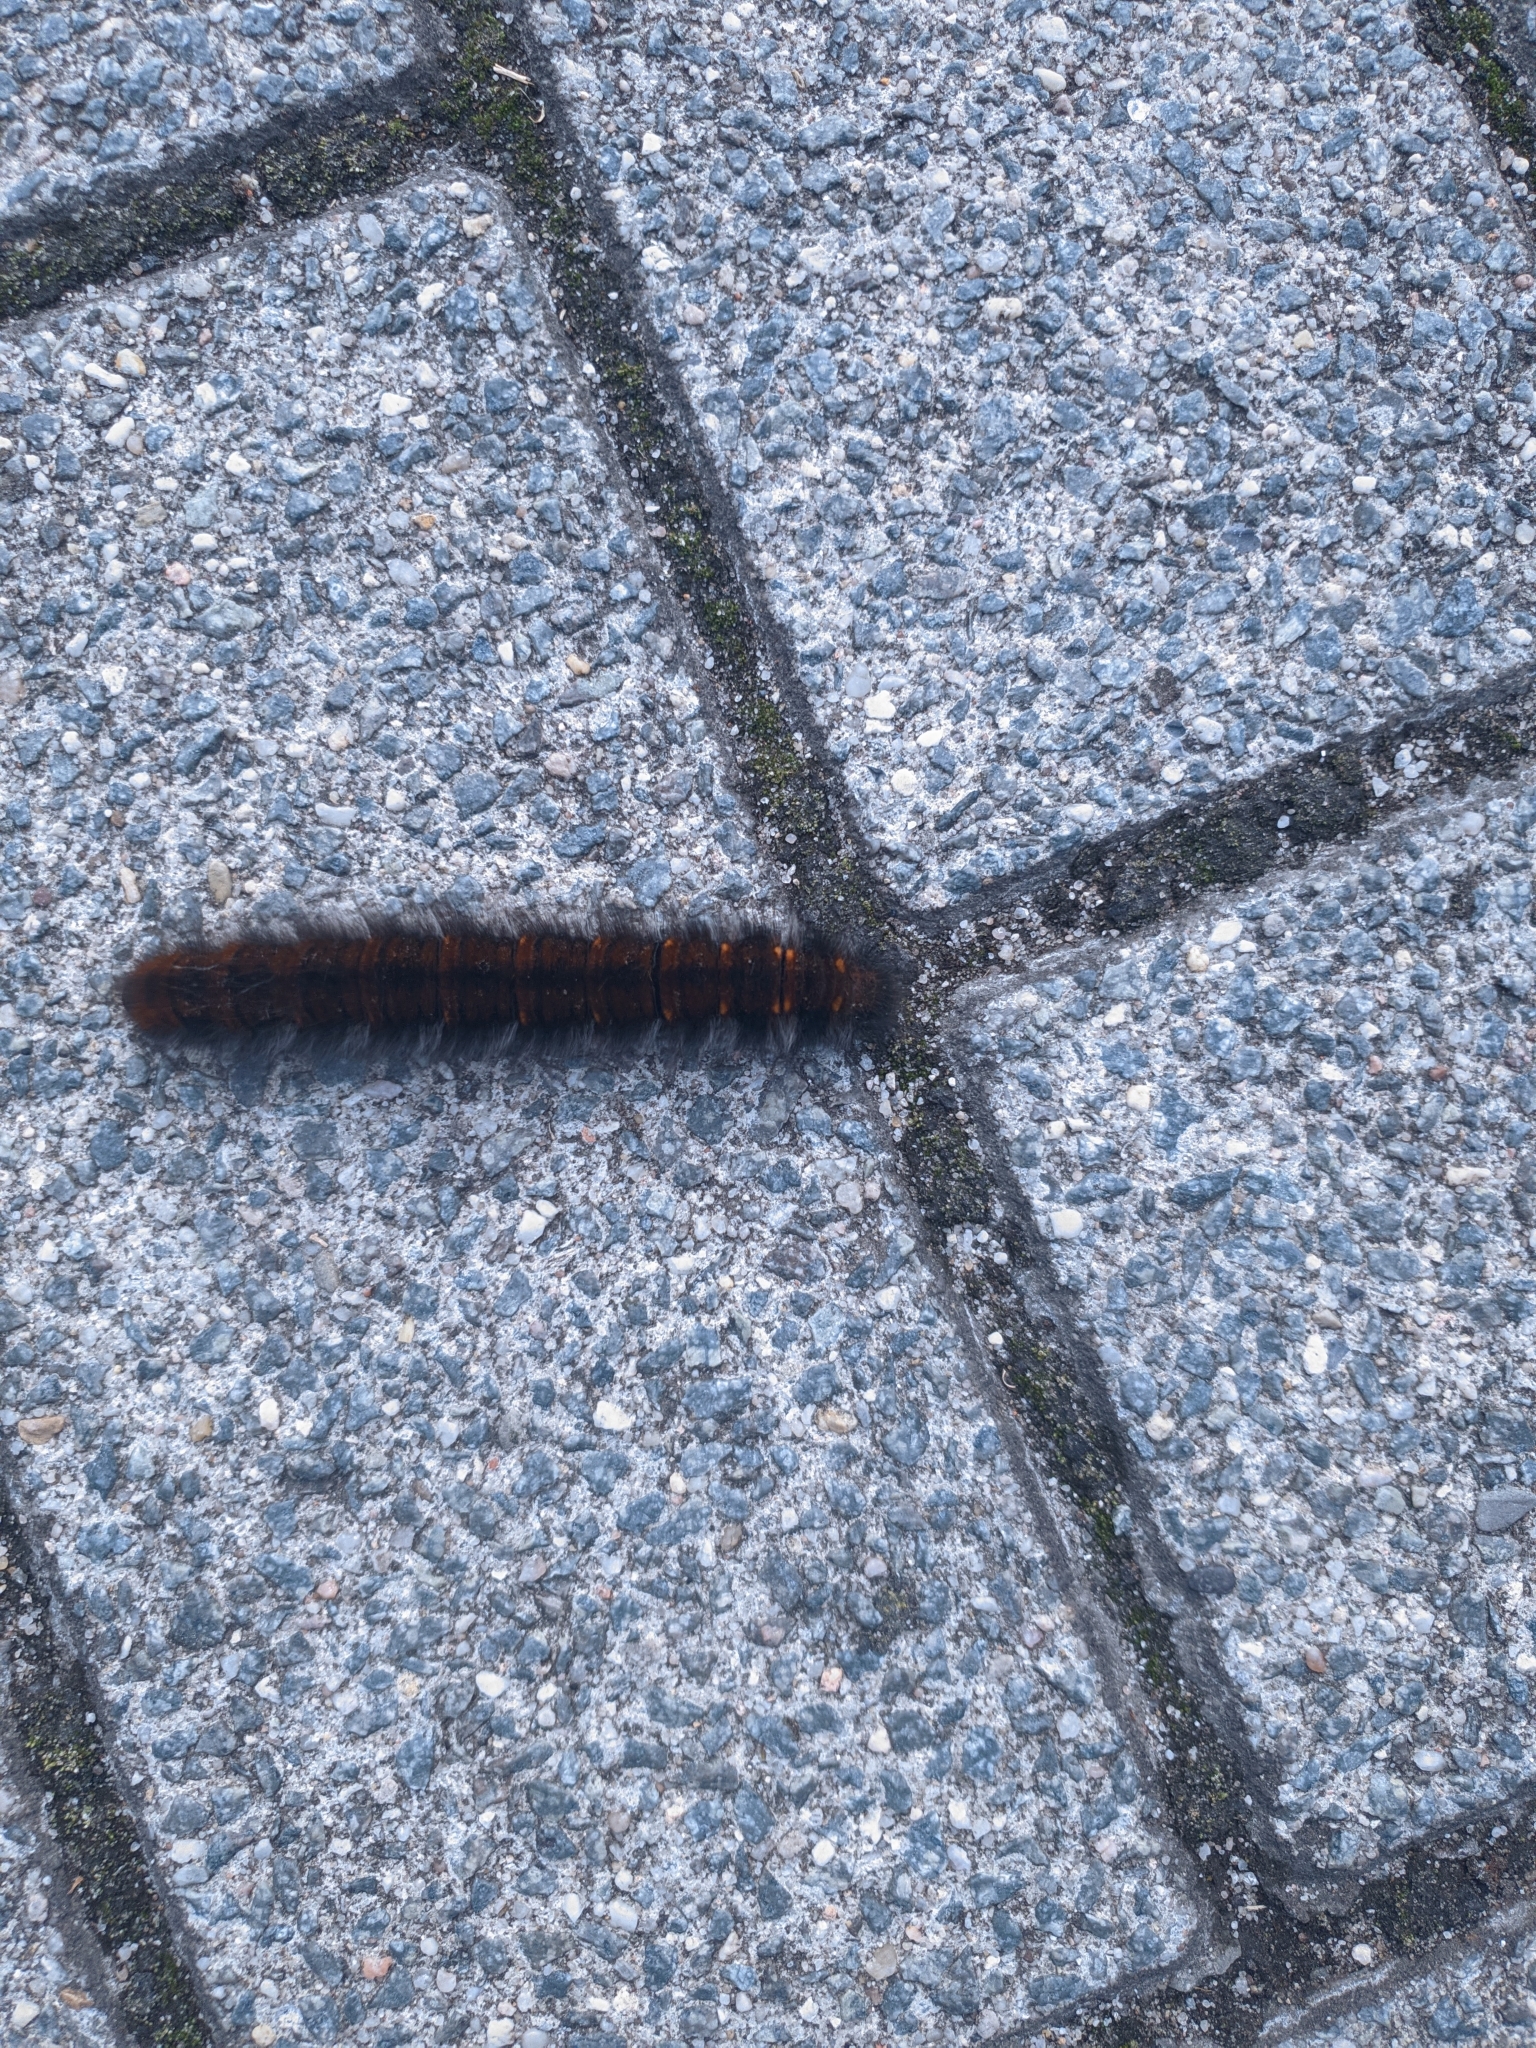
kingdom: Animalia
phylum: Arthropoda
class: Insecta
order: Lepidoptera
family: Lasiocampidae
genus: Macrothylacia
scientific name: Macrothylacia rubi
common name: Fox moth
